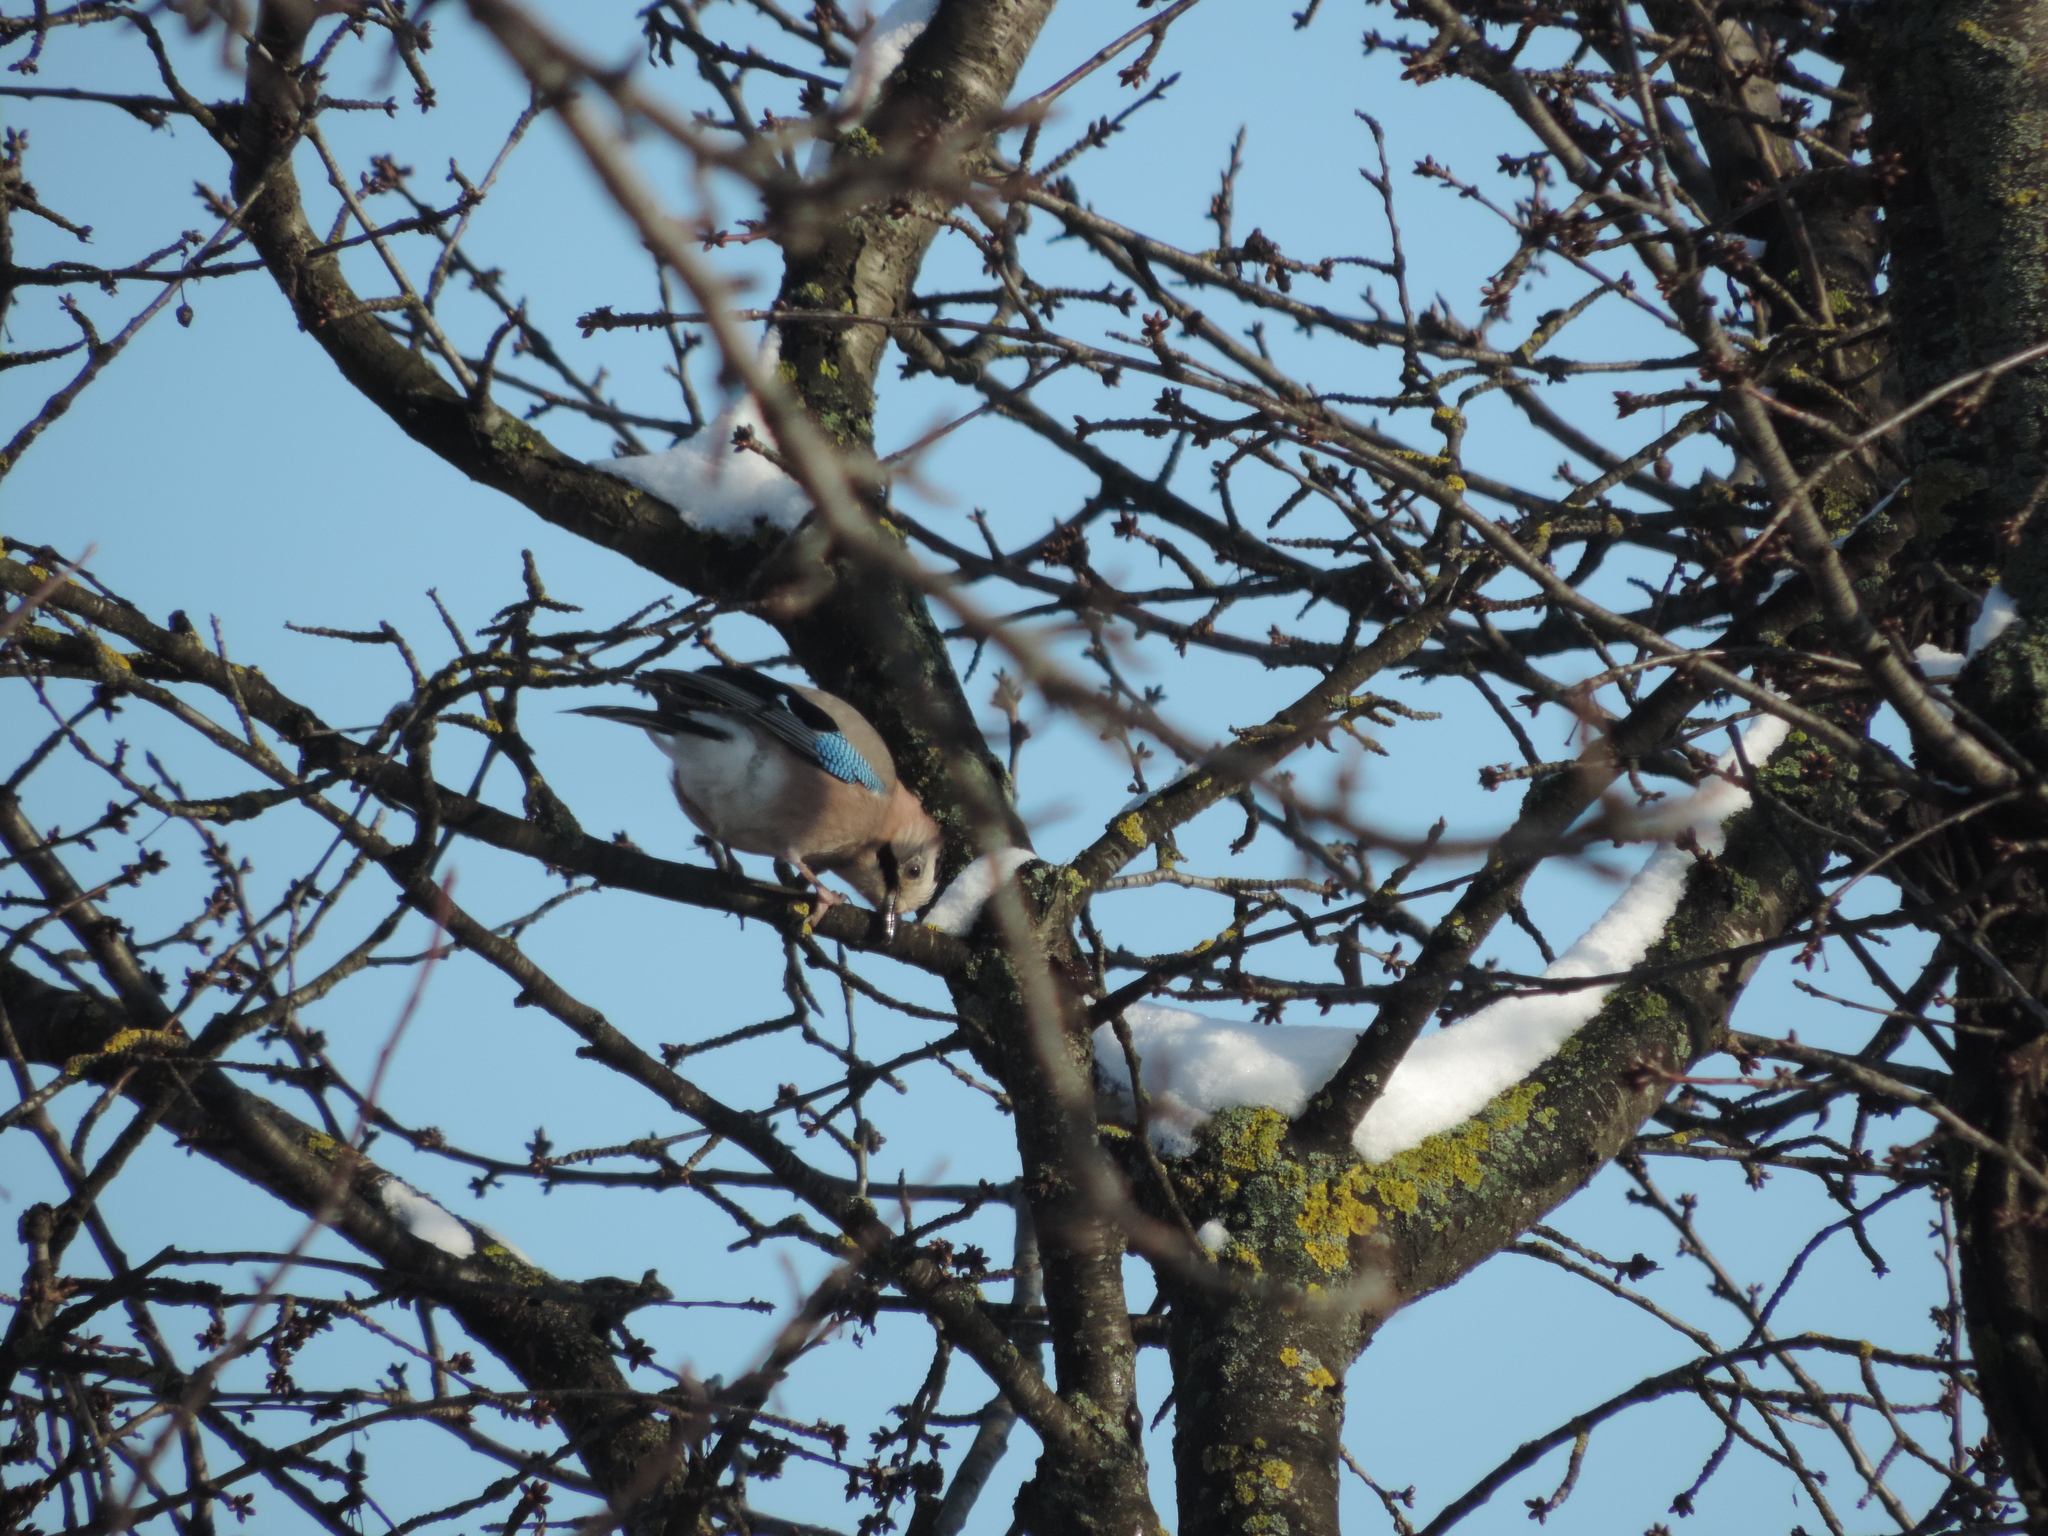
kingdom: Animalia
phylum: Chordata
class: Aves
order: Passeriformes
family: Corvidae
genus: Garrulus
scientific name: Garrulus glandarius
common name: Eurasian jay
